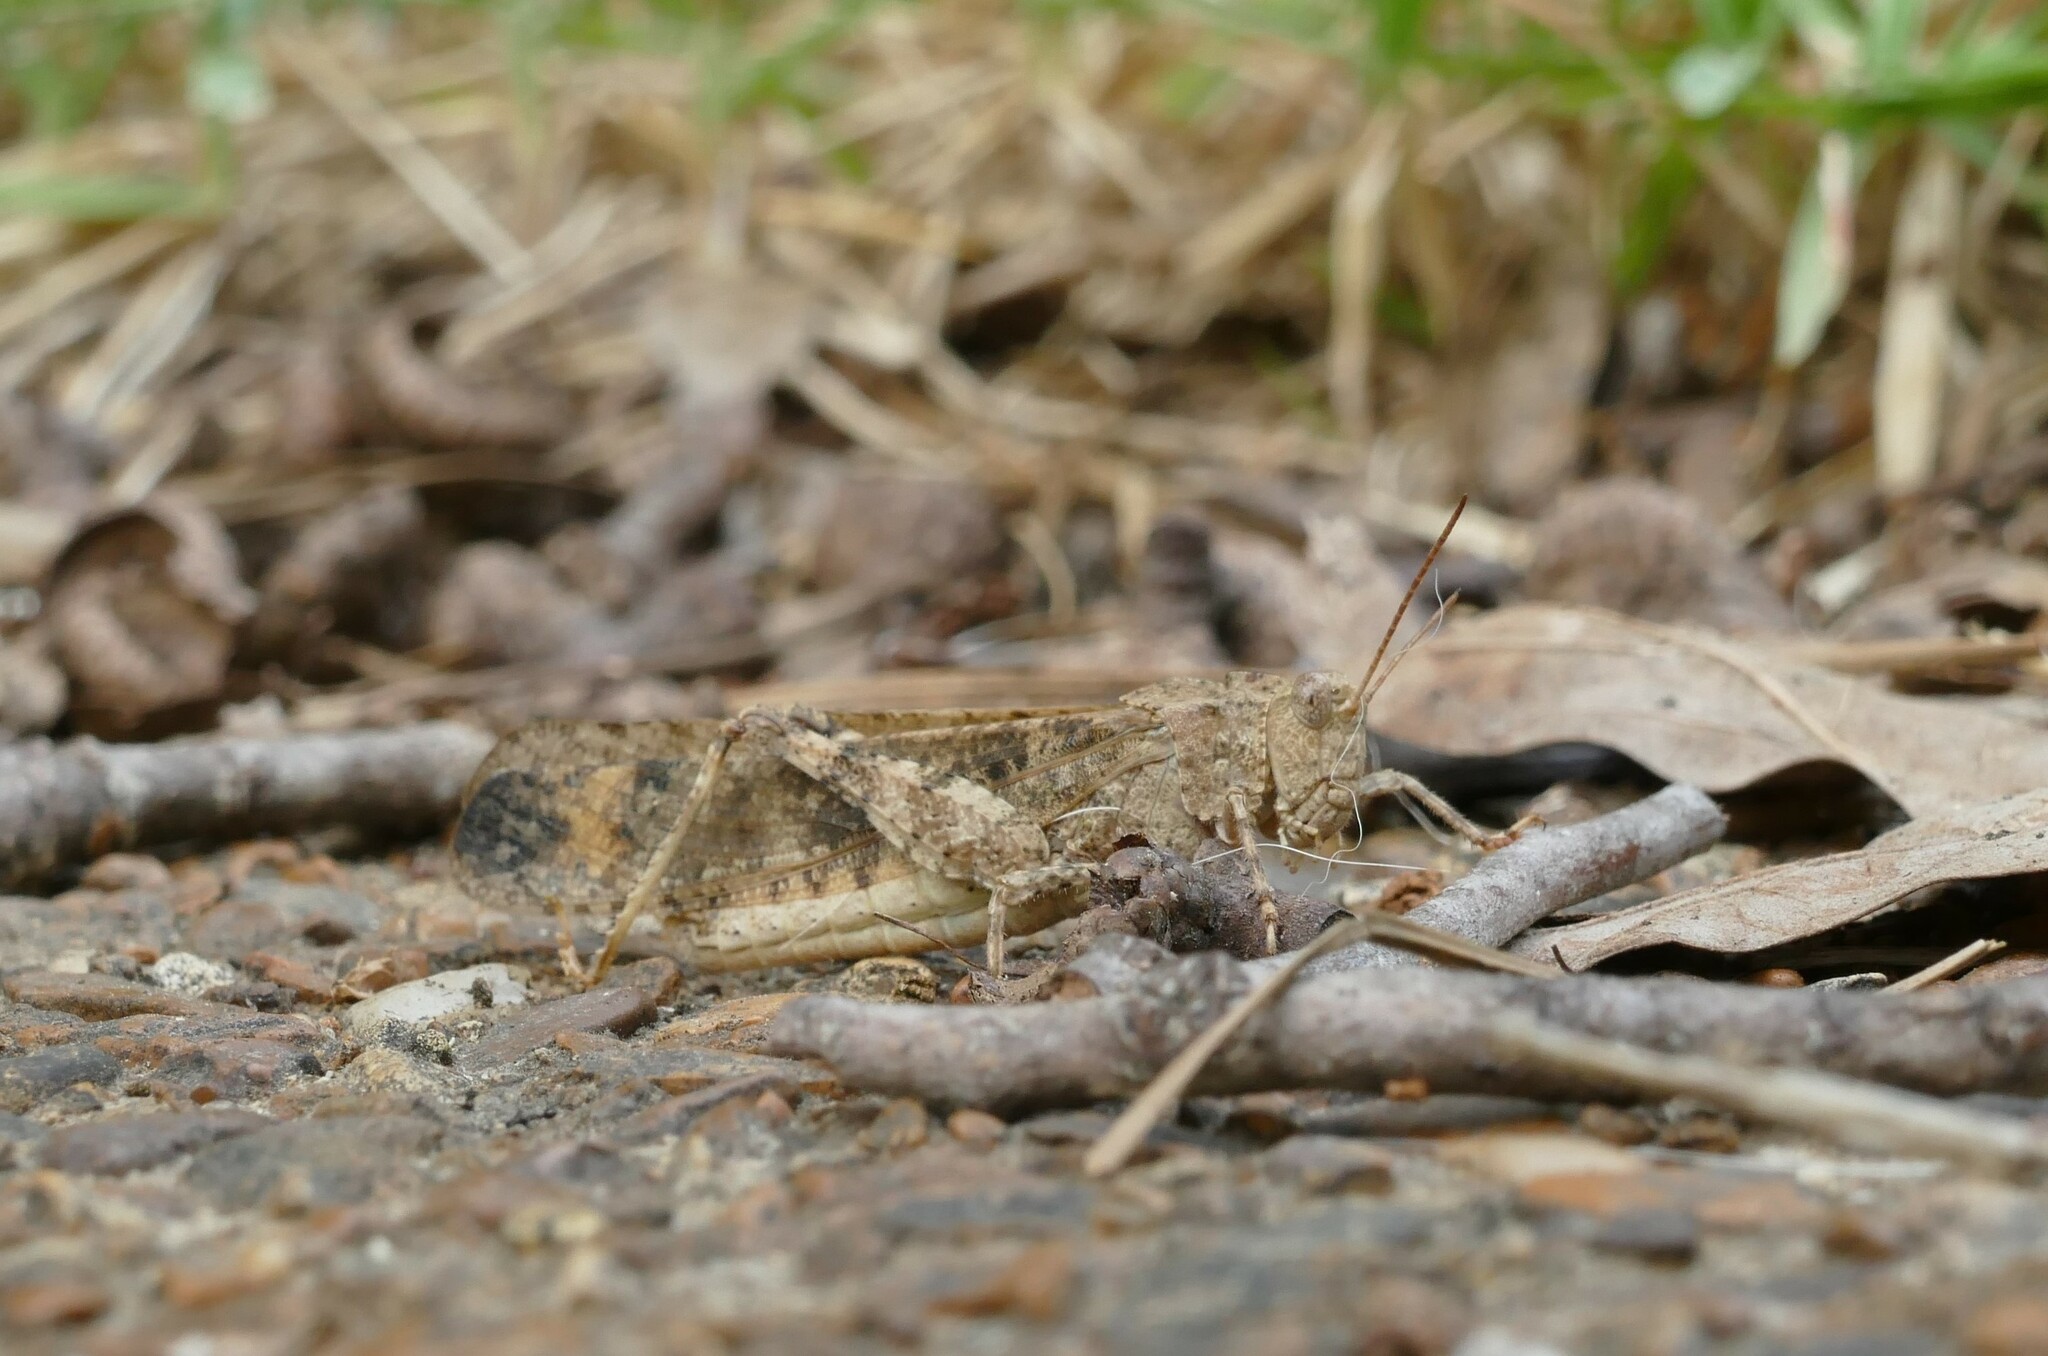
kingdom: Animalia
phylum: Arthropoda
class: Insecta
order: Orthoptera
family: Acrididae
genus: Dissosteira
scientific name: Dissosteira carolina
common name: Carolina grasshopper
